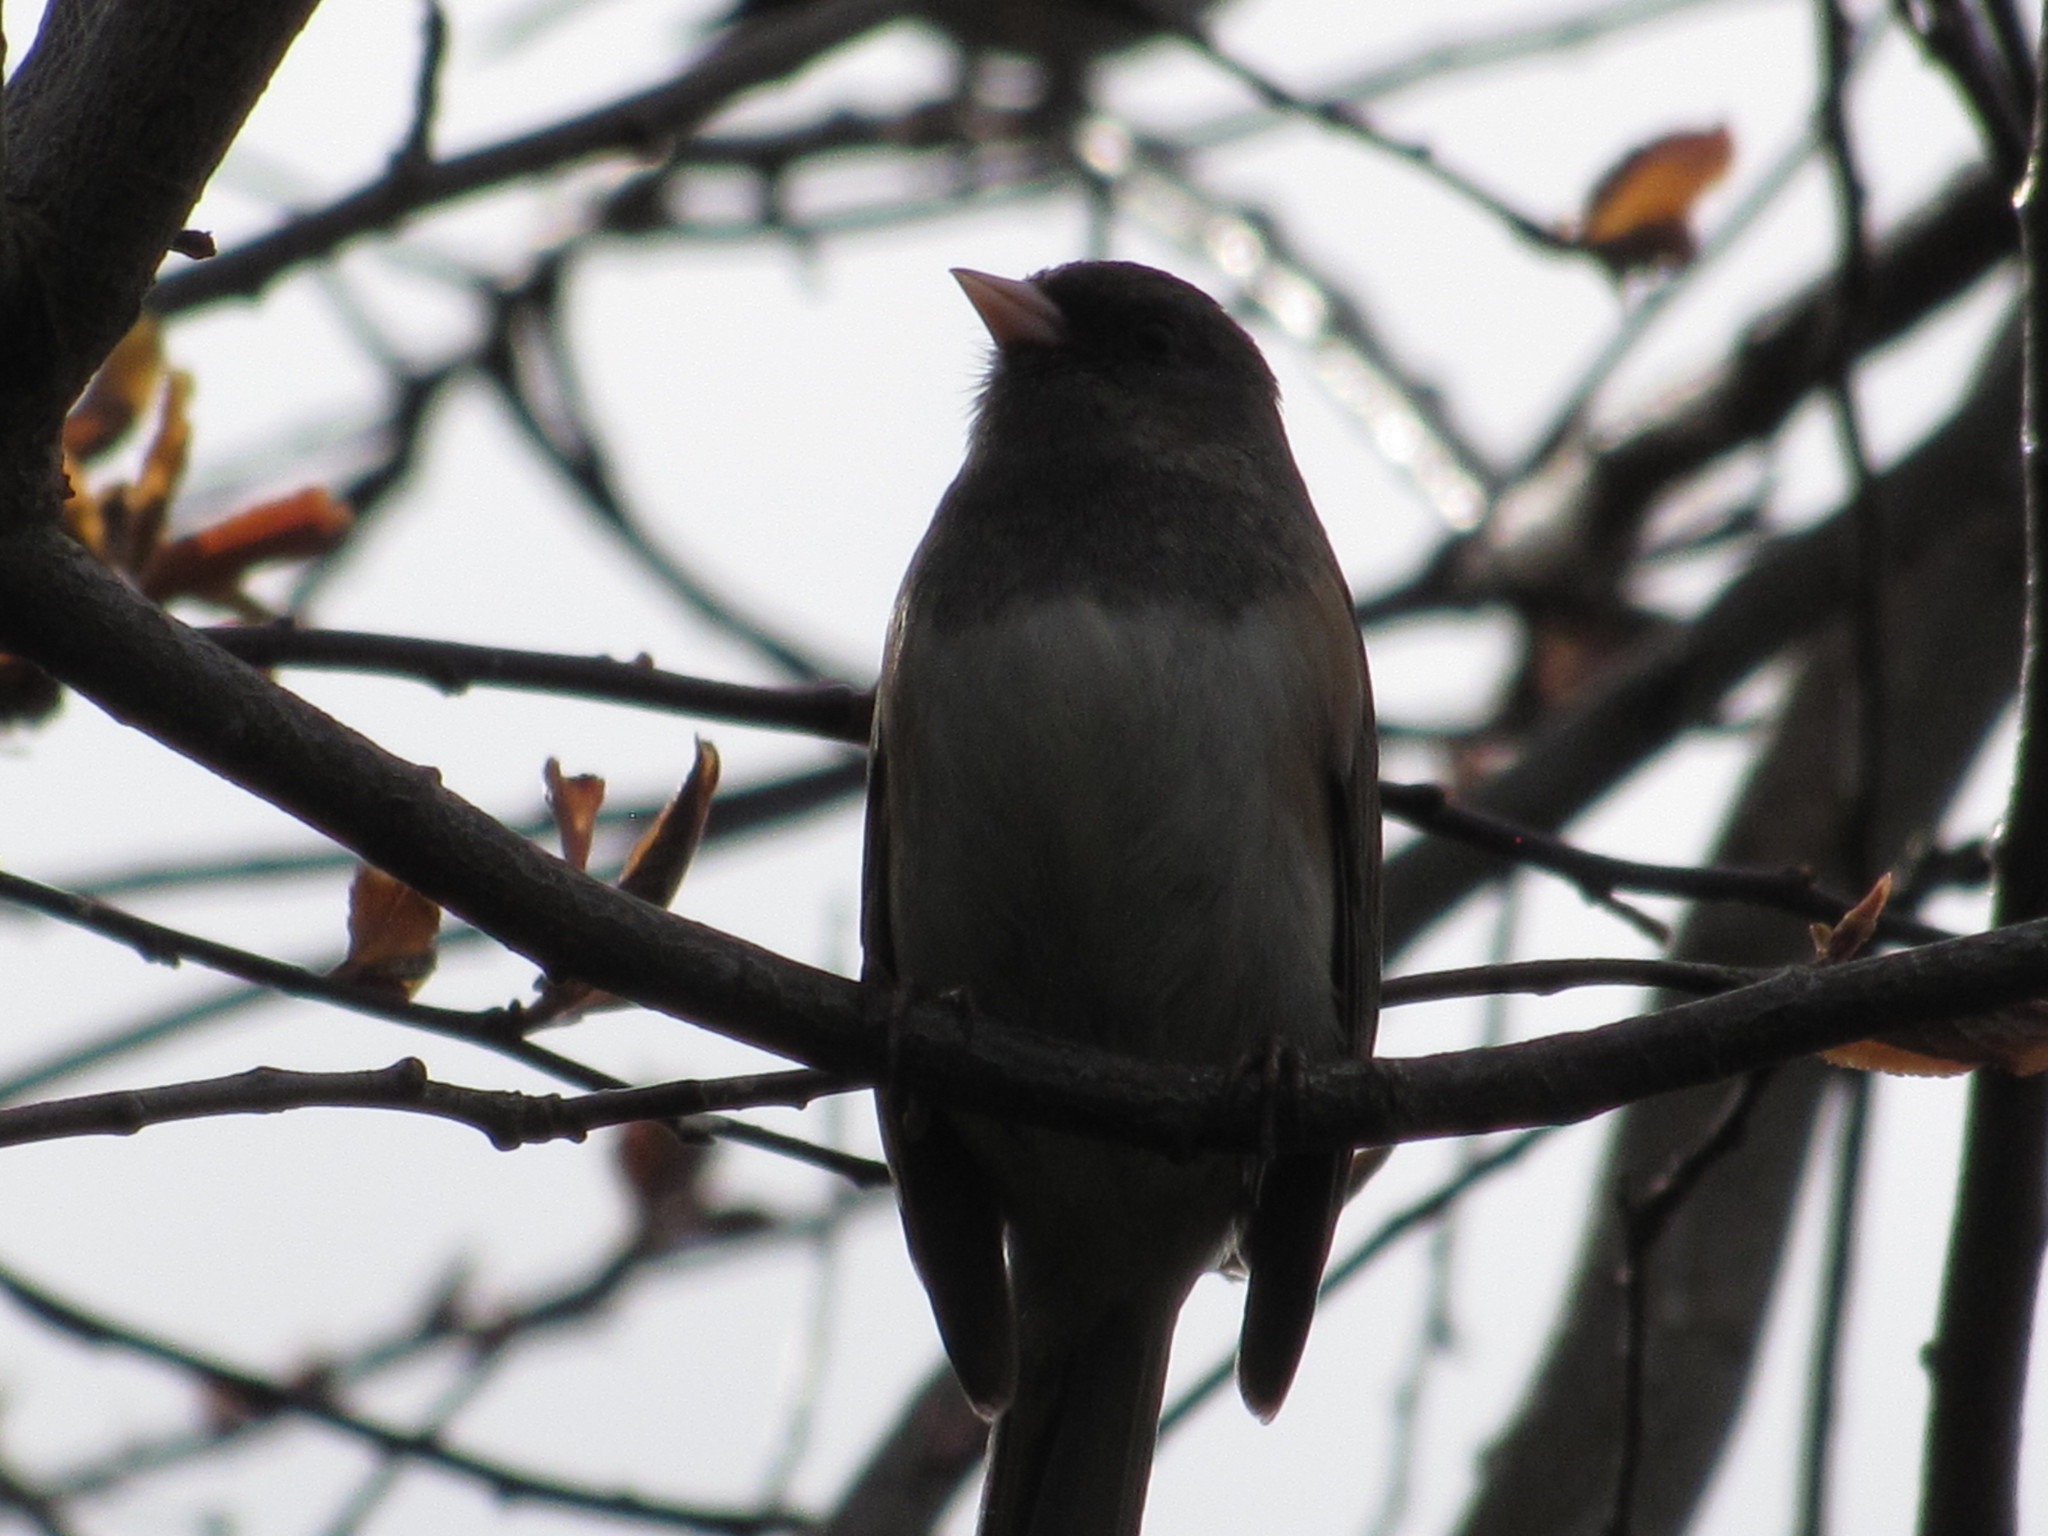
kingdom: Animalia
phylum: Chordata
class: Aves
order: Passeriformes
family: Passerellidae
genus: Junco
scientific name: Junco hyemalis
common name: Dark-eyed junco
